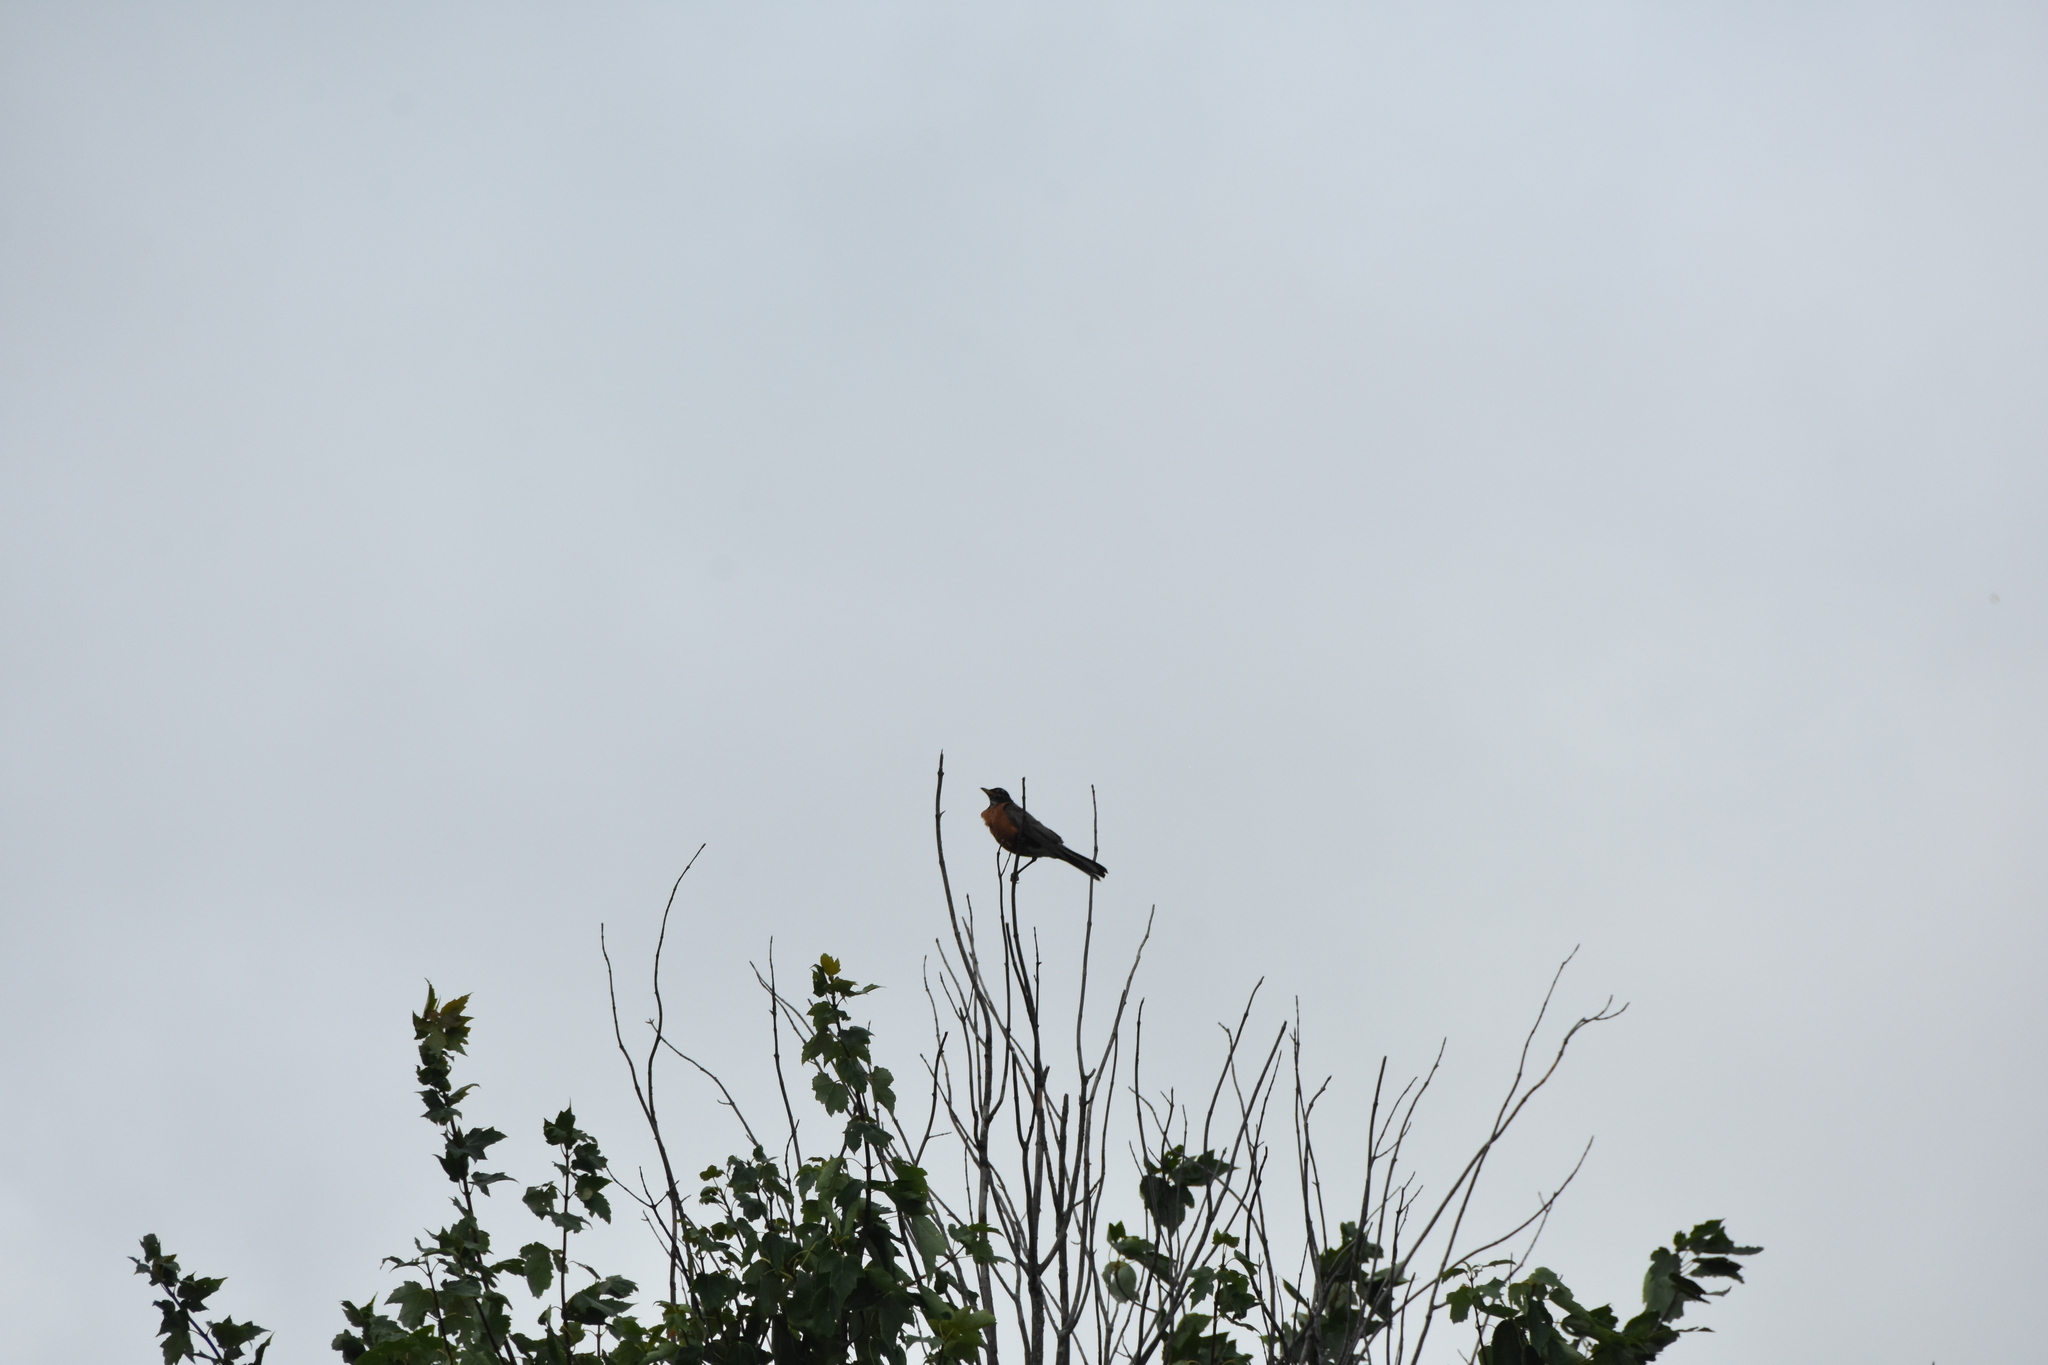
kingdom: Animalia
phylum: Chordata
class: Aves
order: Passeriformes
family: Turdidae
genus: Turdus
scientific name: Turdus migratorius
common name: American robin
